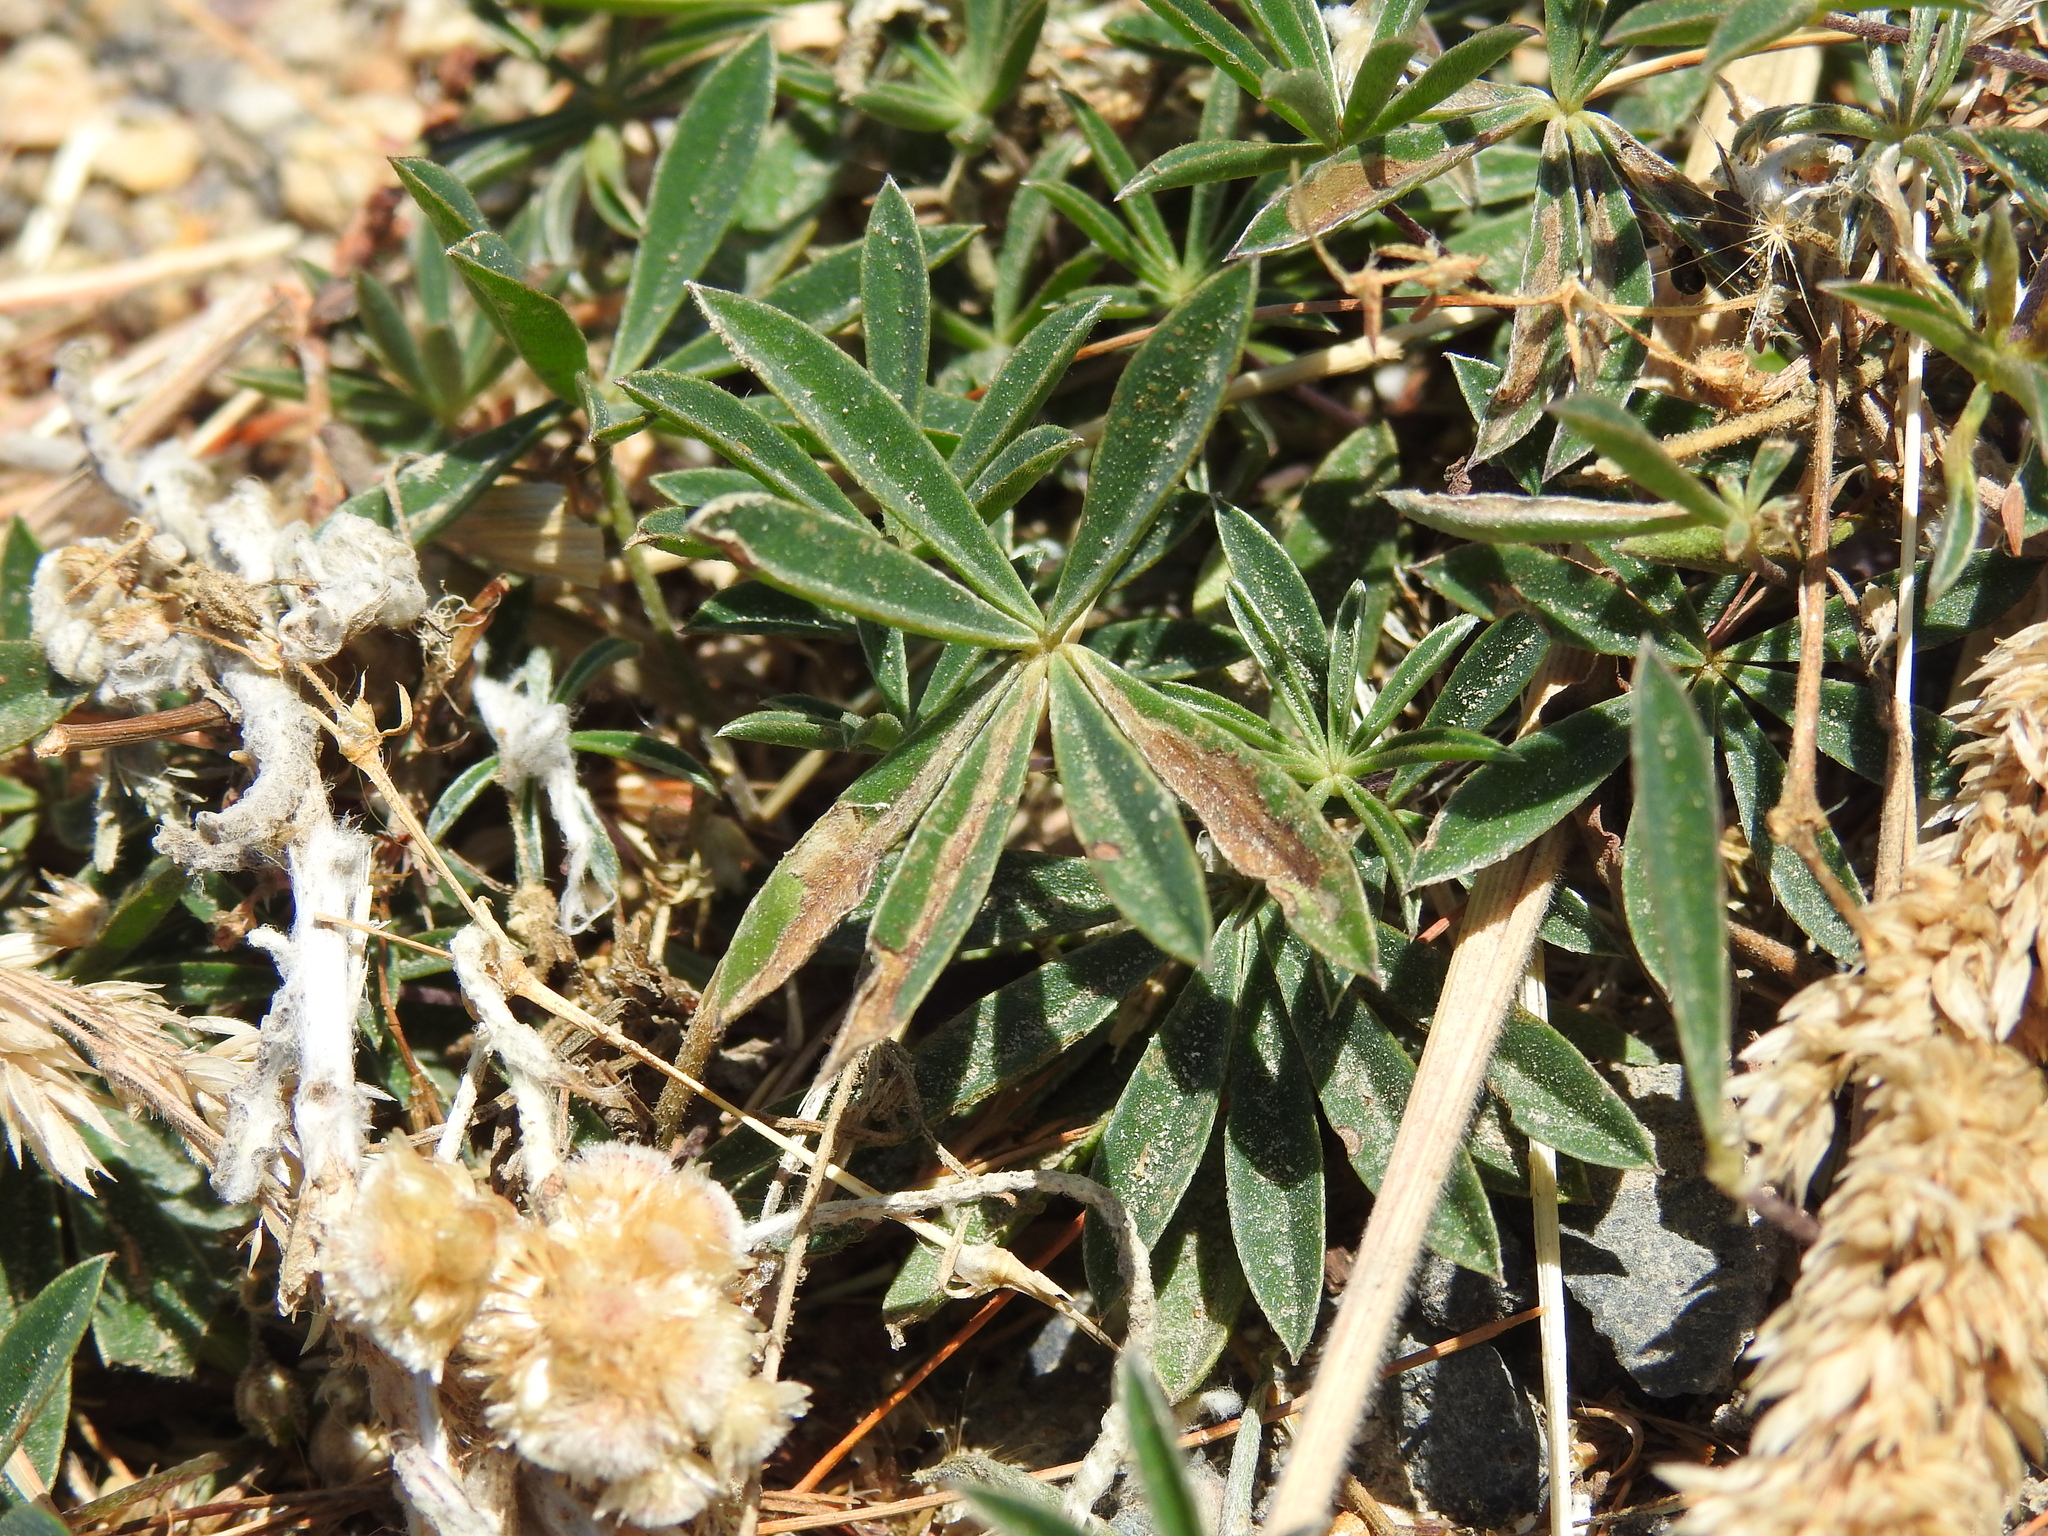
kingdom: Plantae
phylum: Tracheophyta
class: Magnoliopsida
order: Fabales
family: Fabaceae
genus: Lupinus
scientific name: Lupinus littoralis
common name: Seashore lupine
